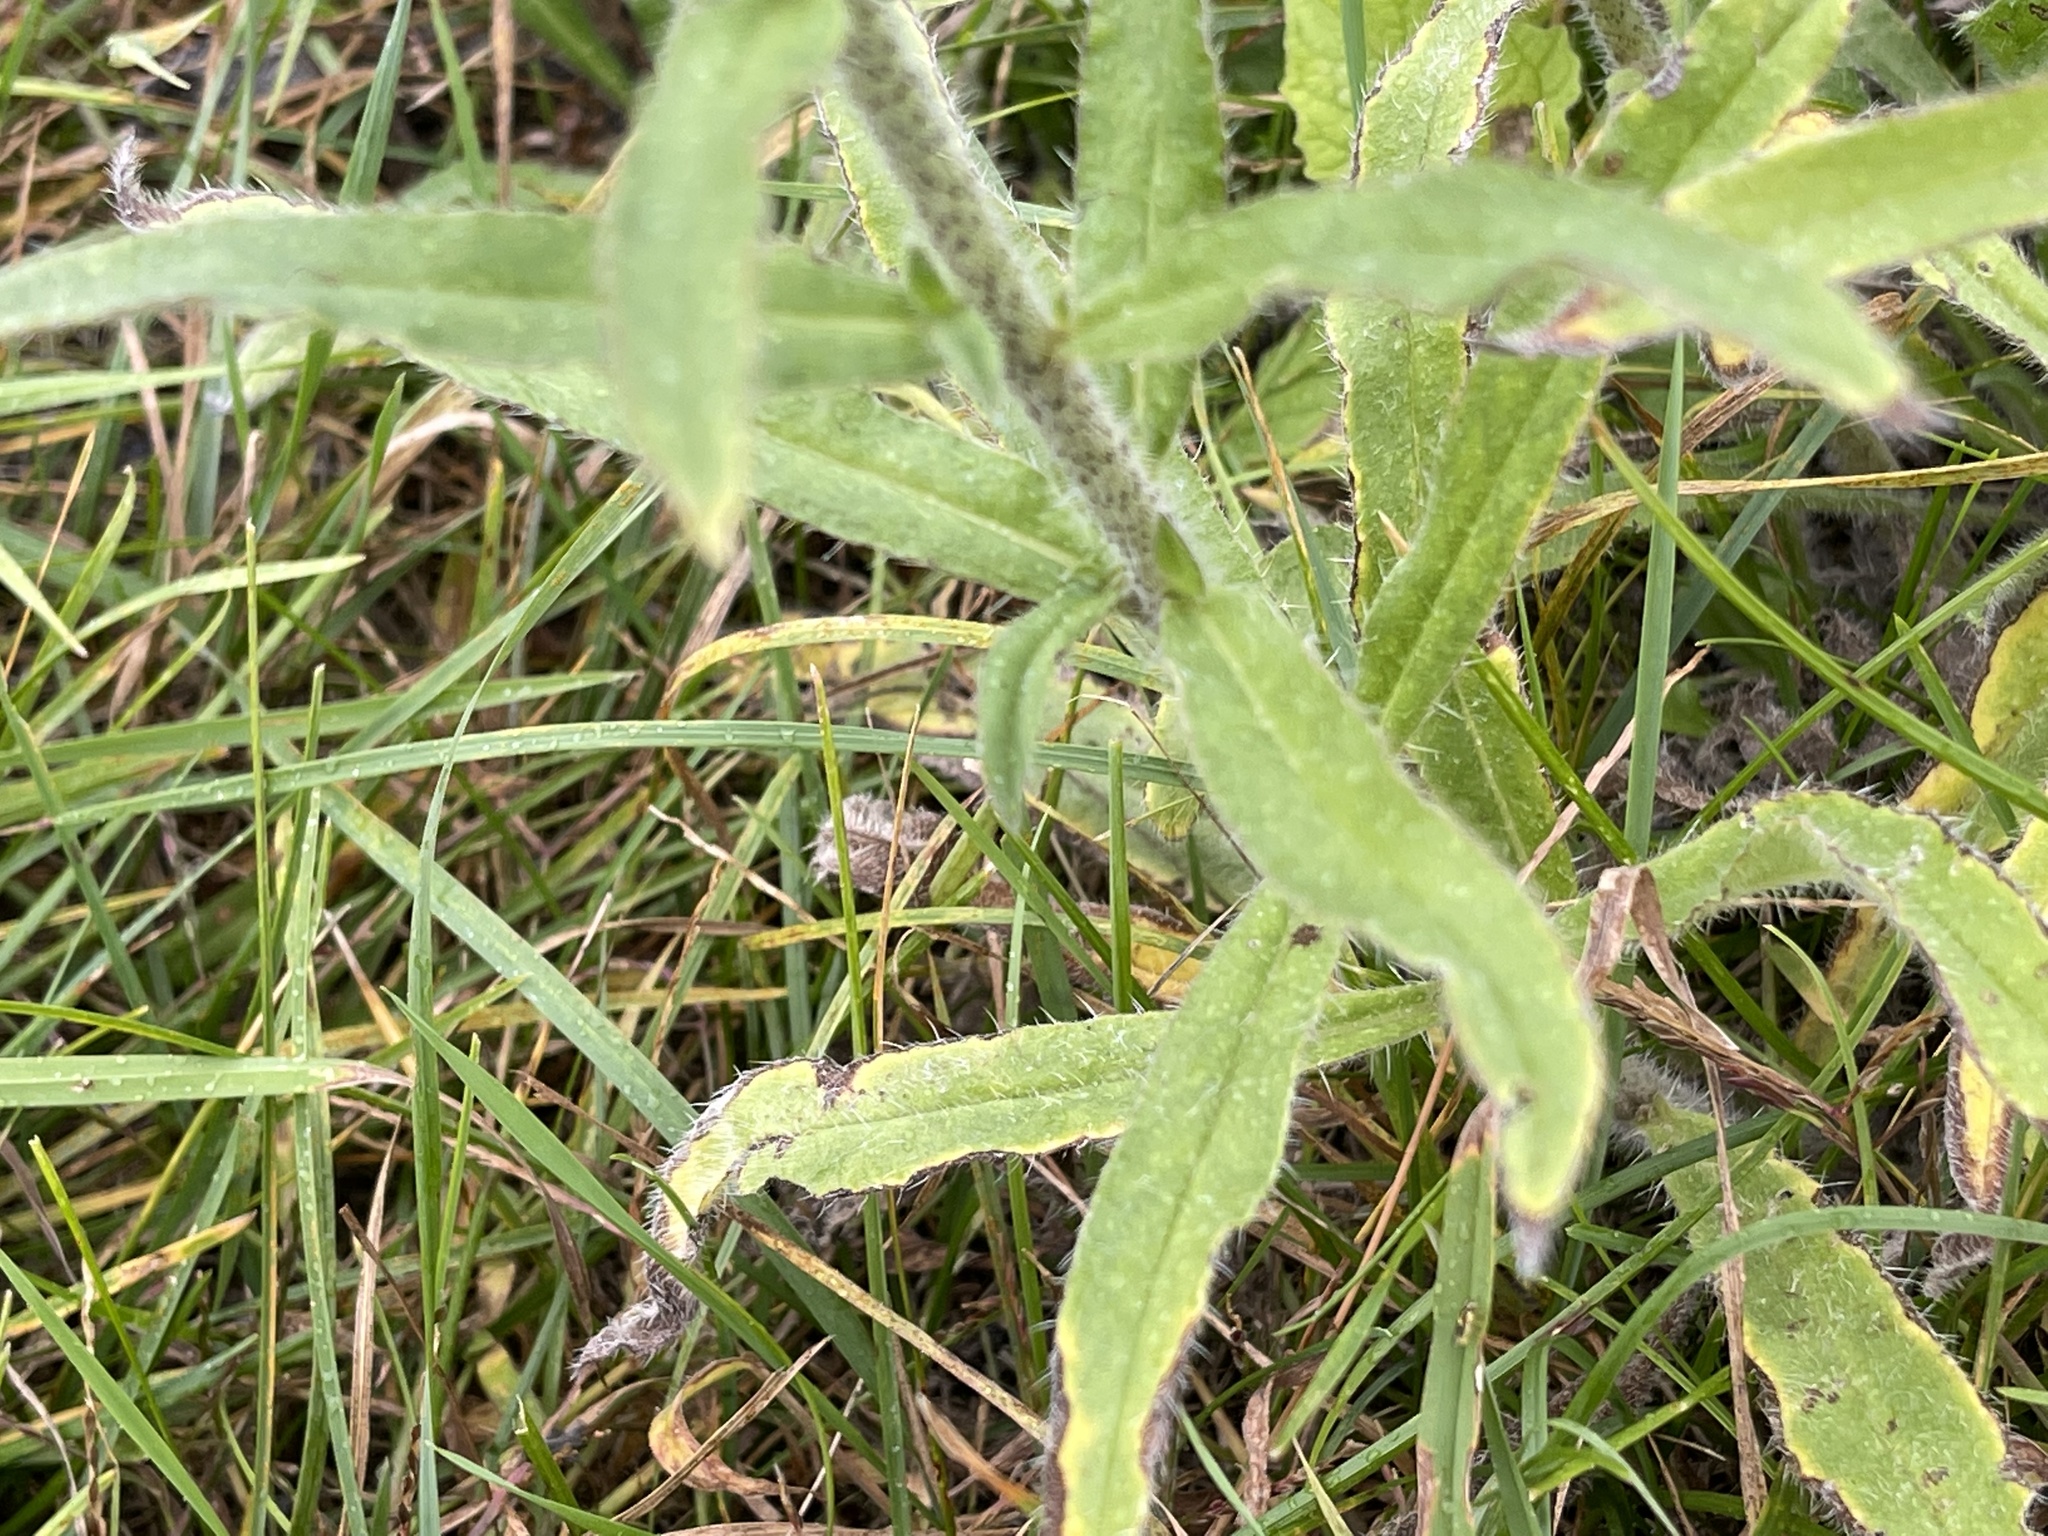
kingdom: Plantae
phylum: Tracheophyta
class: Magnoliopsida
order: Boraginales
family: Boraginaceae
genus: Echium
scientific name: Echium vulgare
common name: Common viper's bugloss
